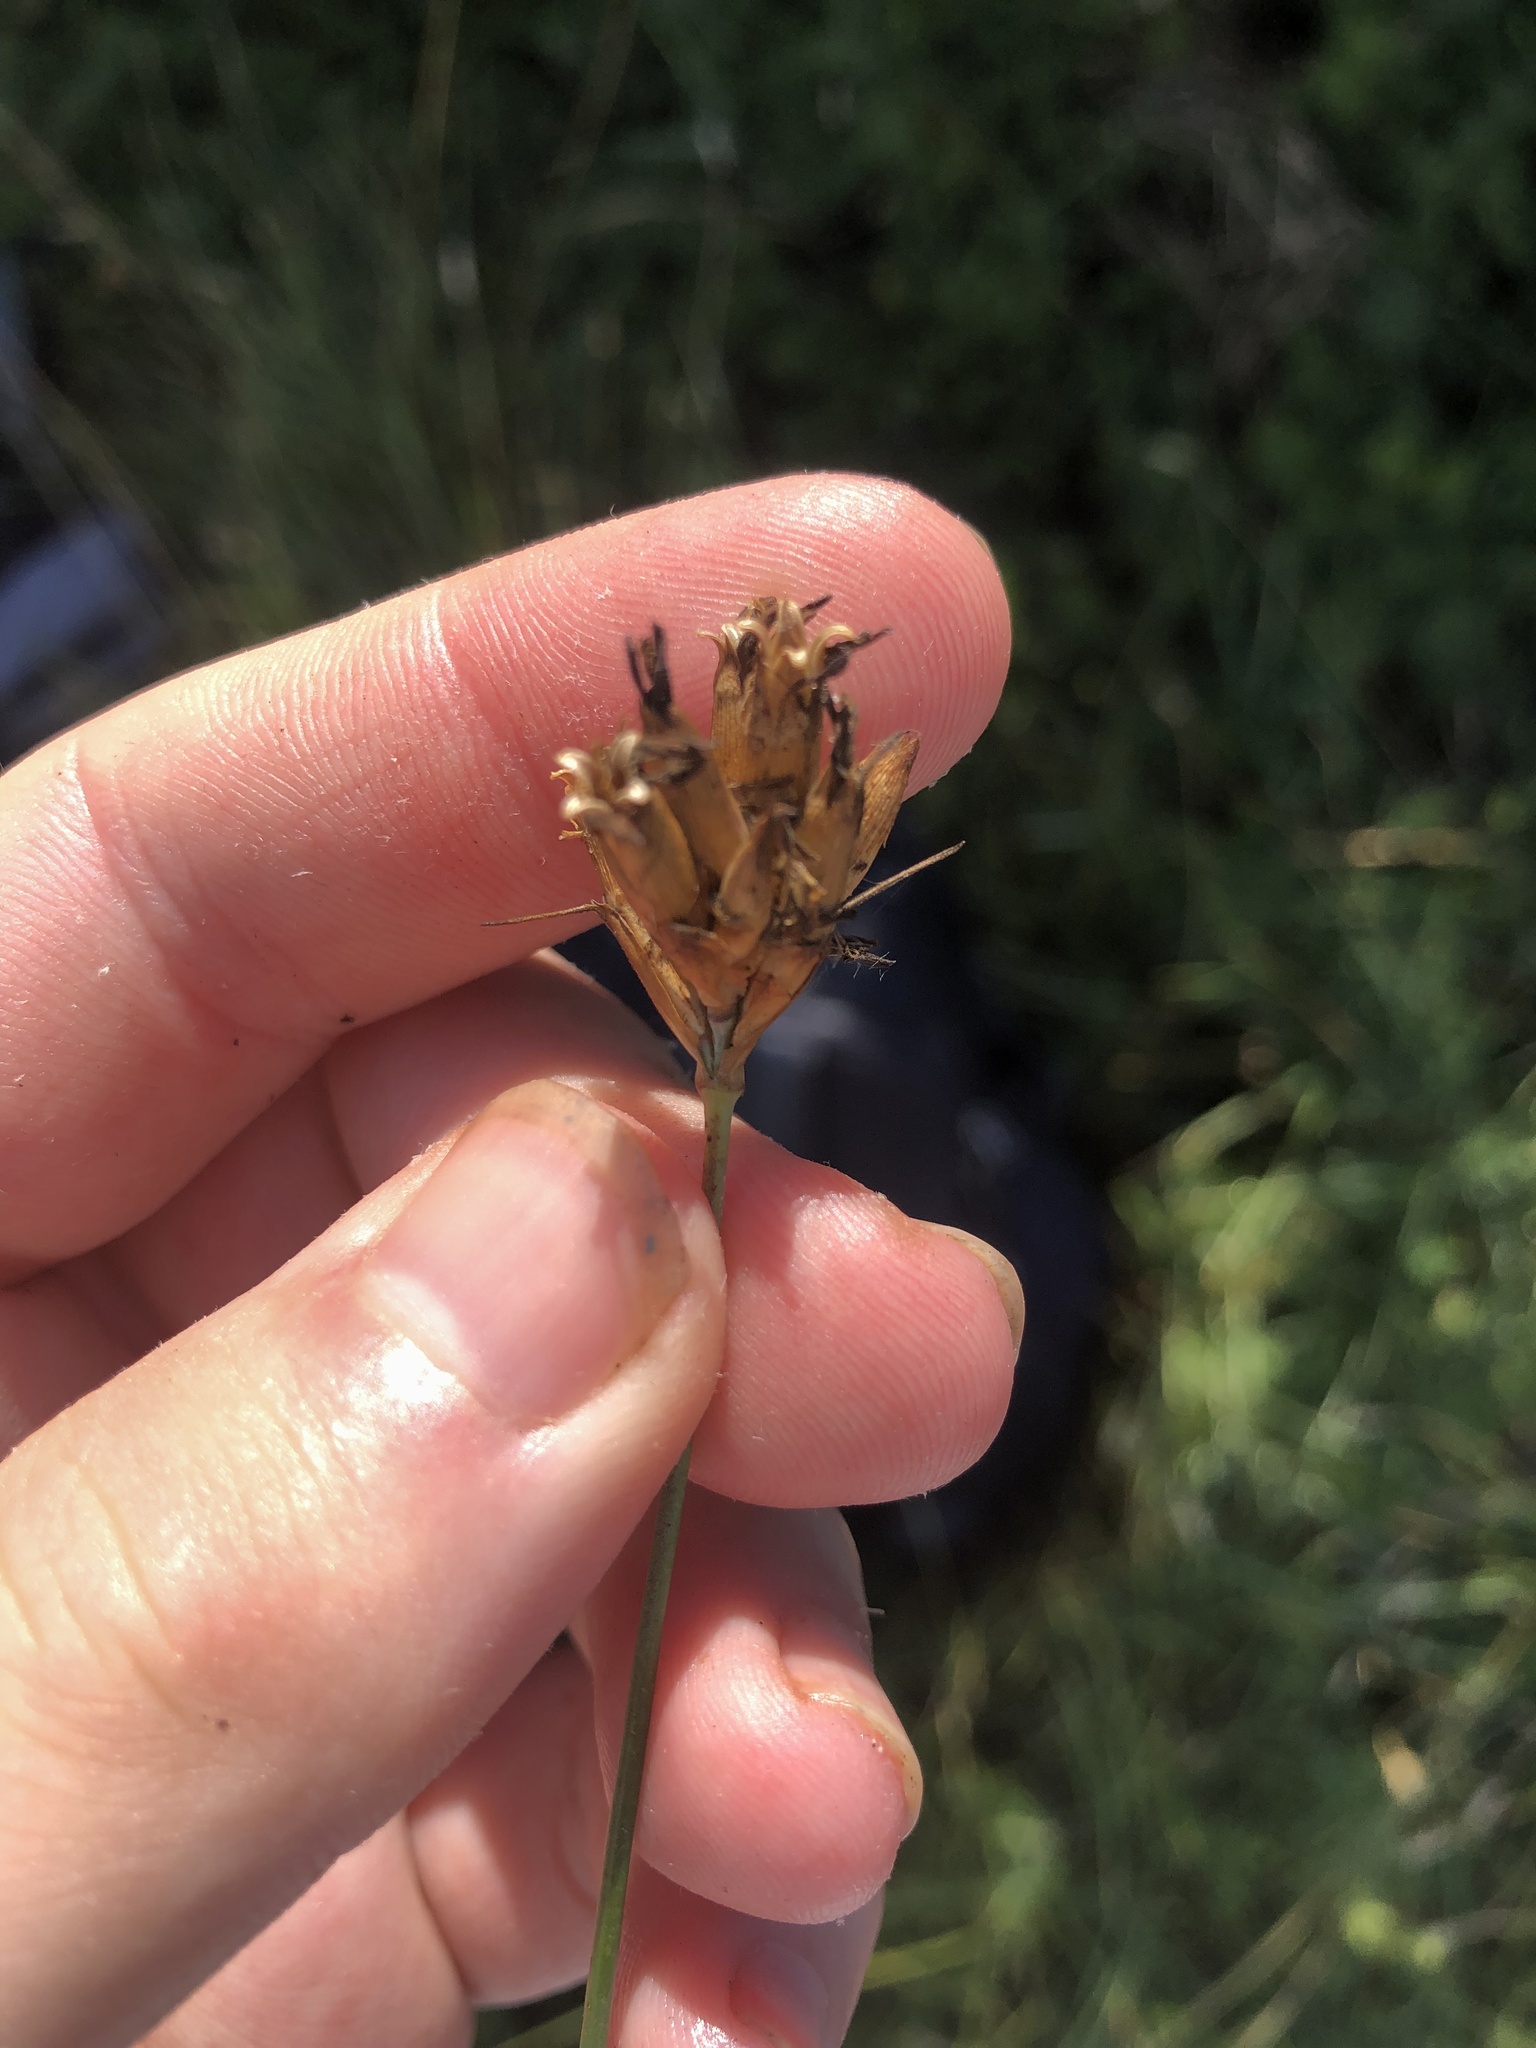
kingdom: Plantae
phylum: Tracheophyta
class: Magnoliopsida
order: Caryophyllales
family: Caryophyllaceae
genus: Dianthus
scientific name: Dianthus pontederae
